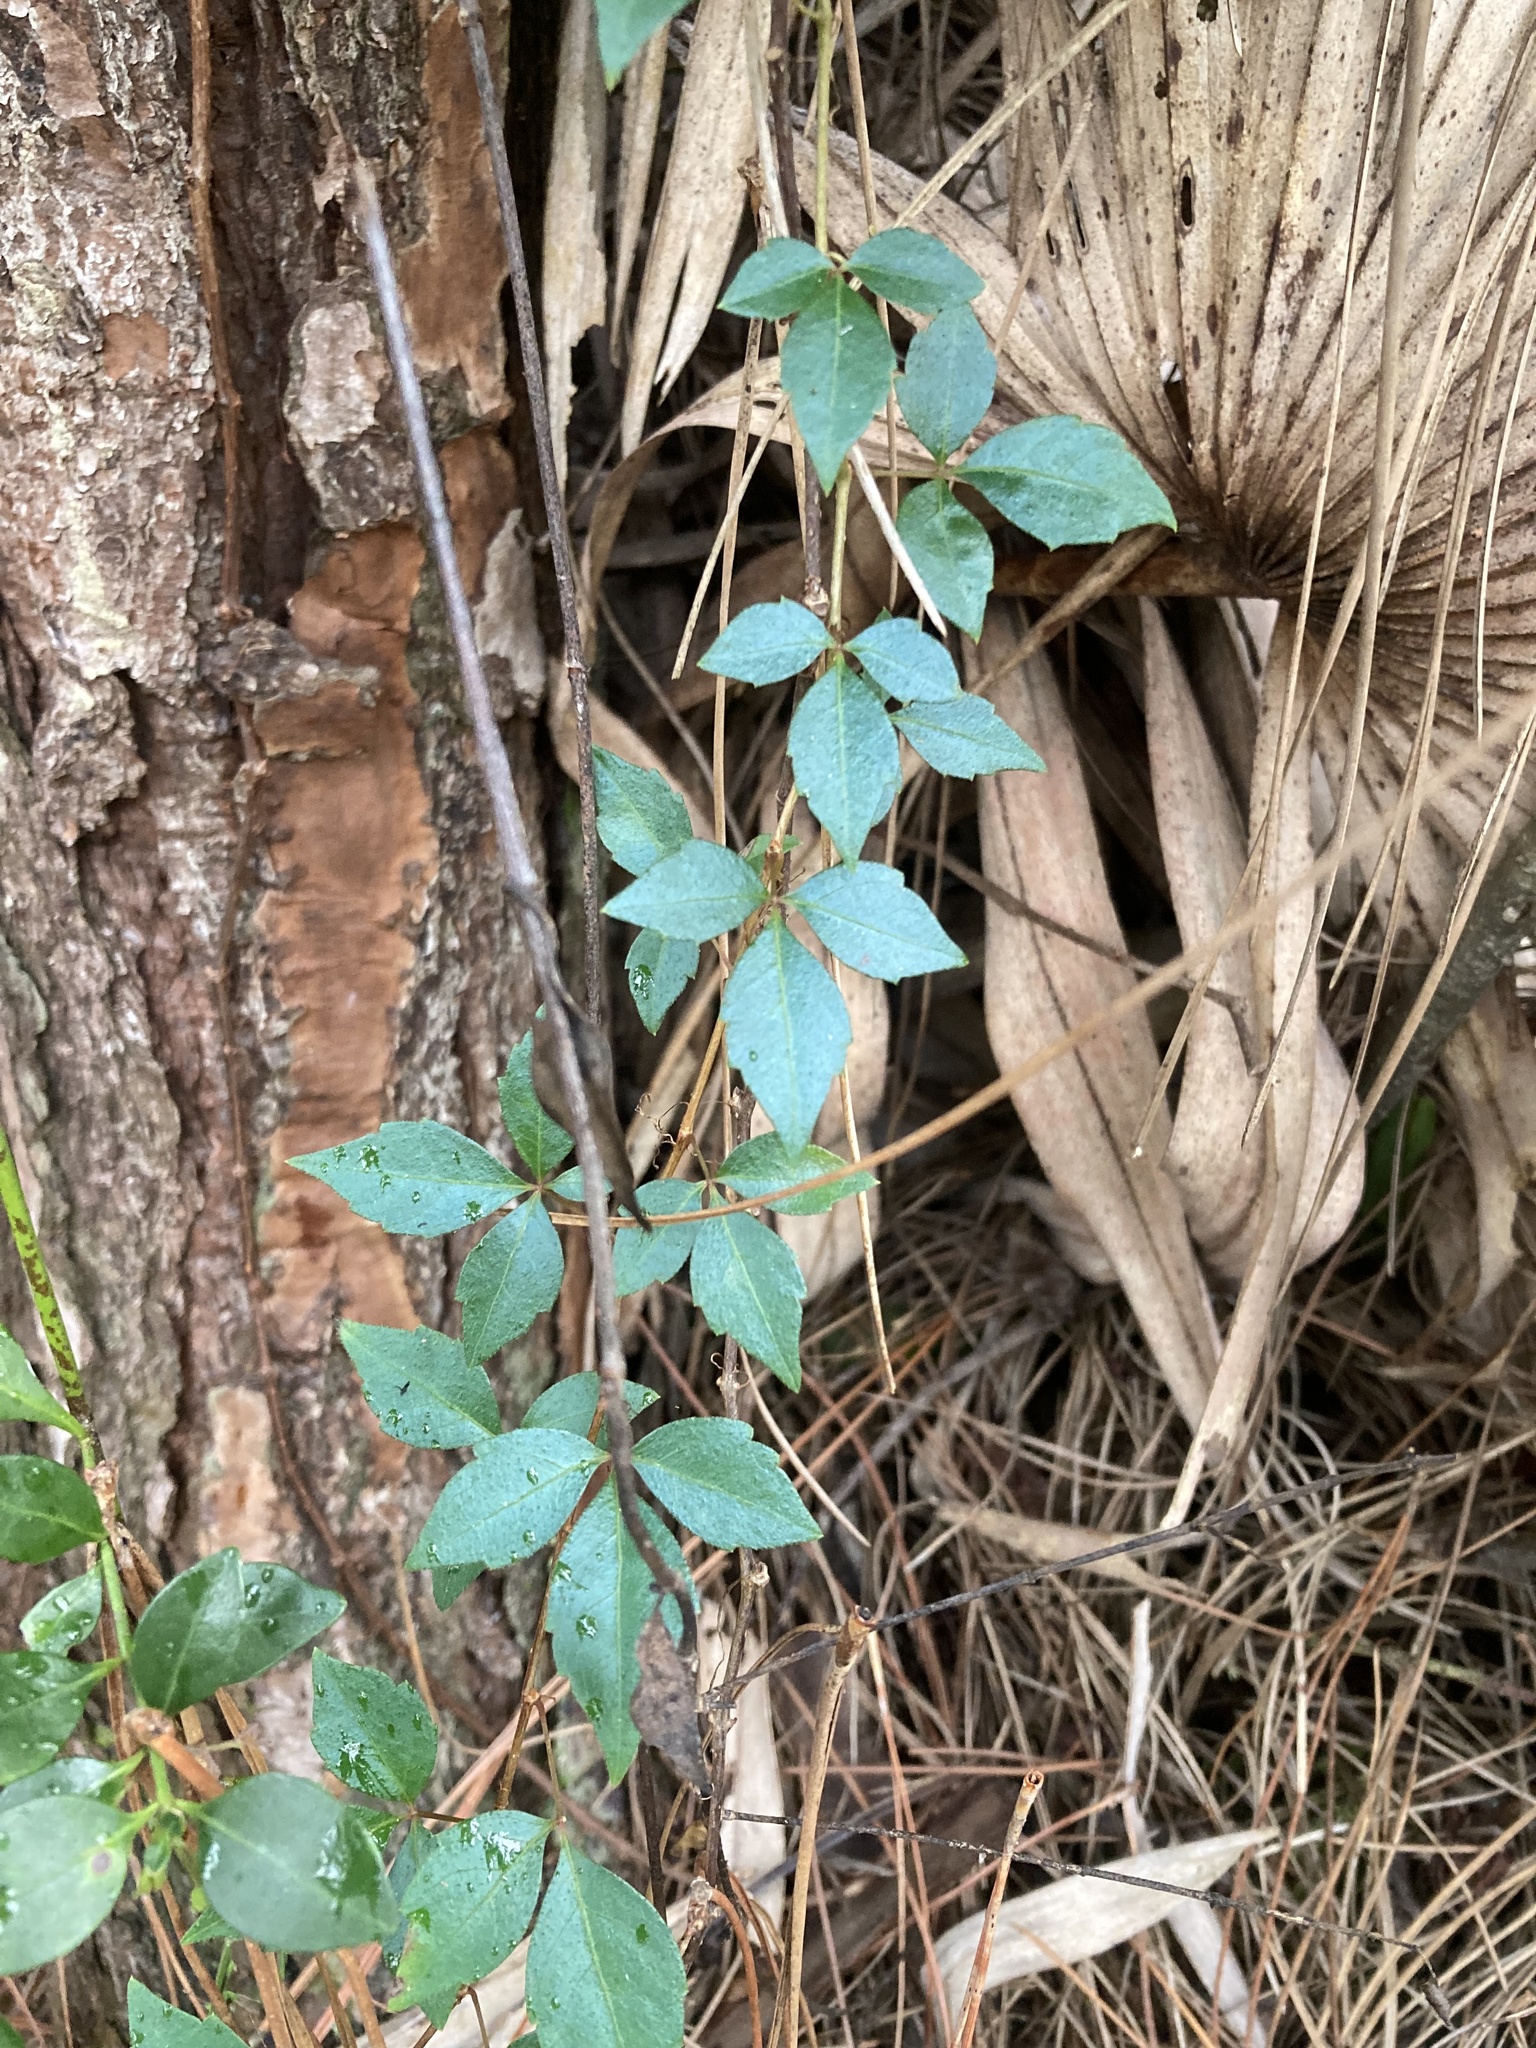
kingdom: Plantae
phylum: Tracheophyta
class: Magnoliopsida
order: Vitales
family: Vitaceae
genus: Parthenocissus
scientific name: Parthenocissus quinquefolia
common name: Virginia-creeper
